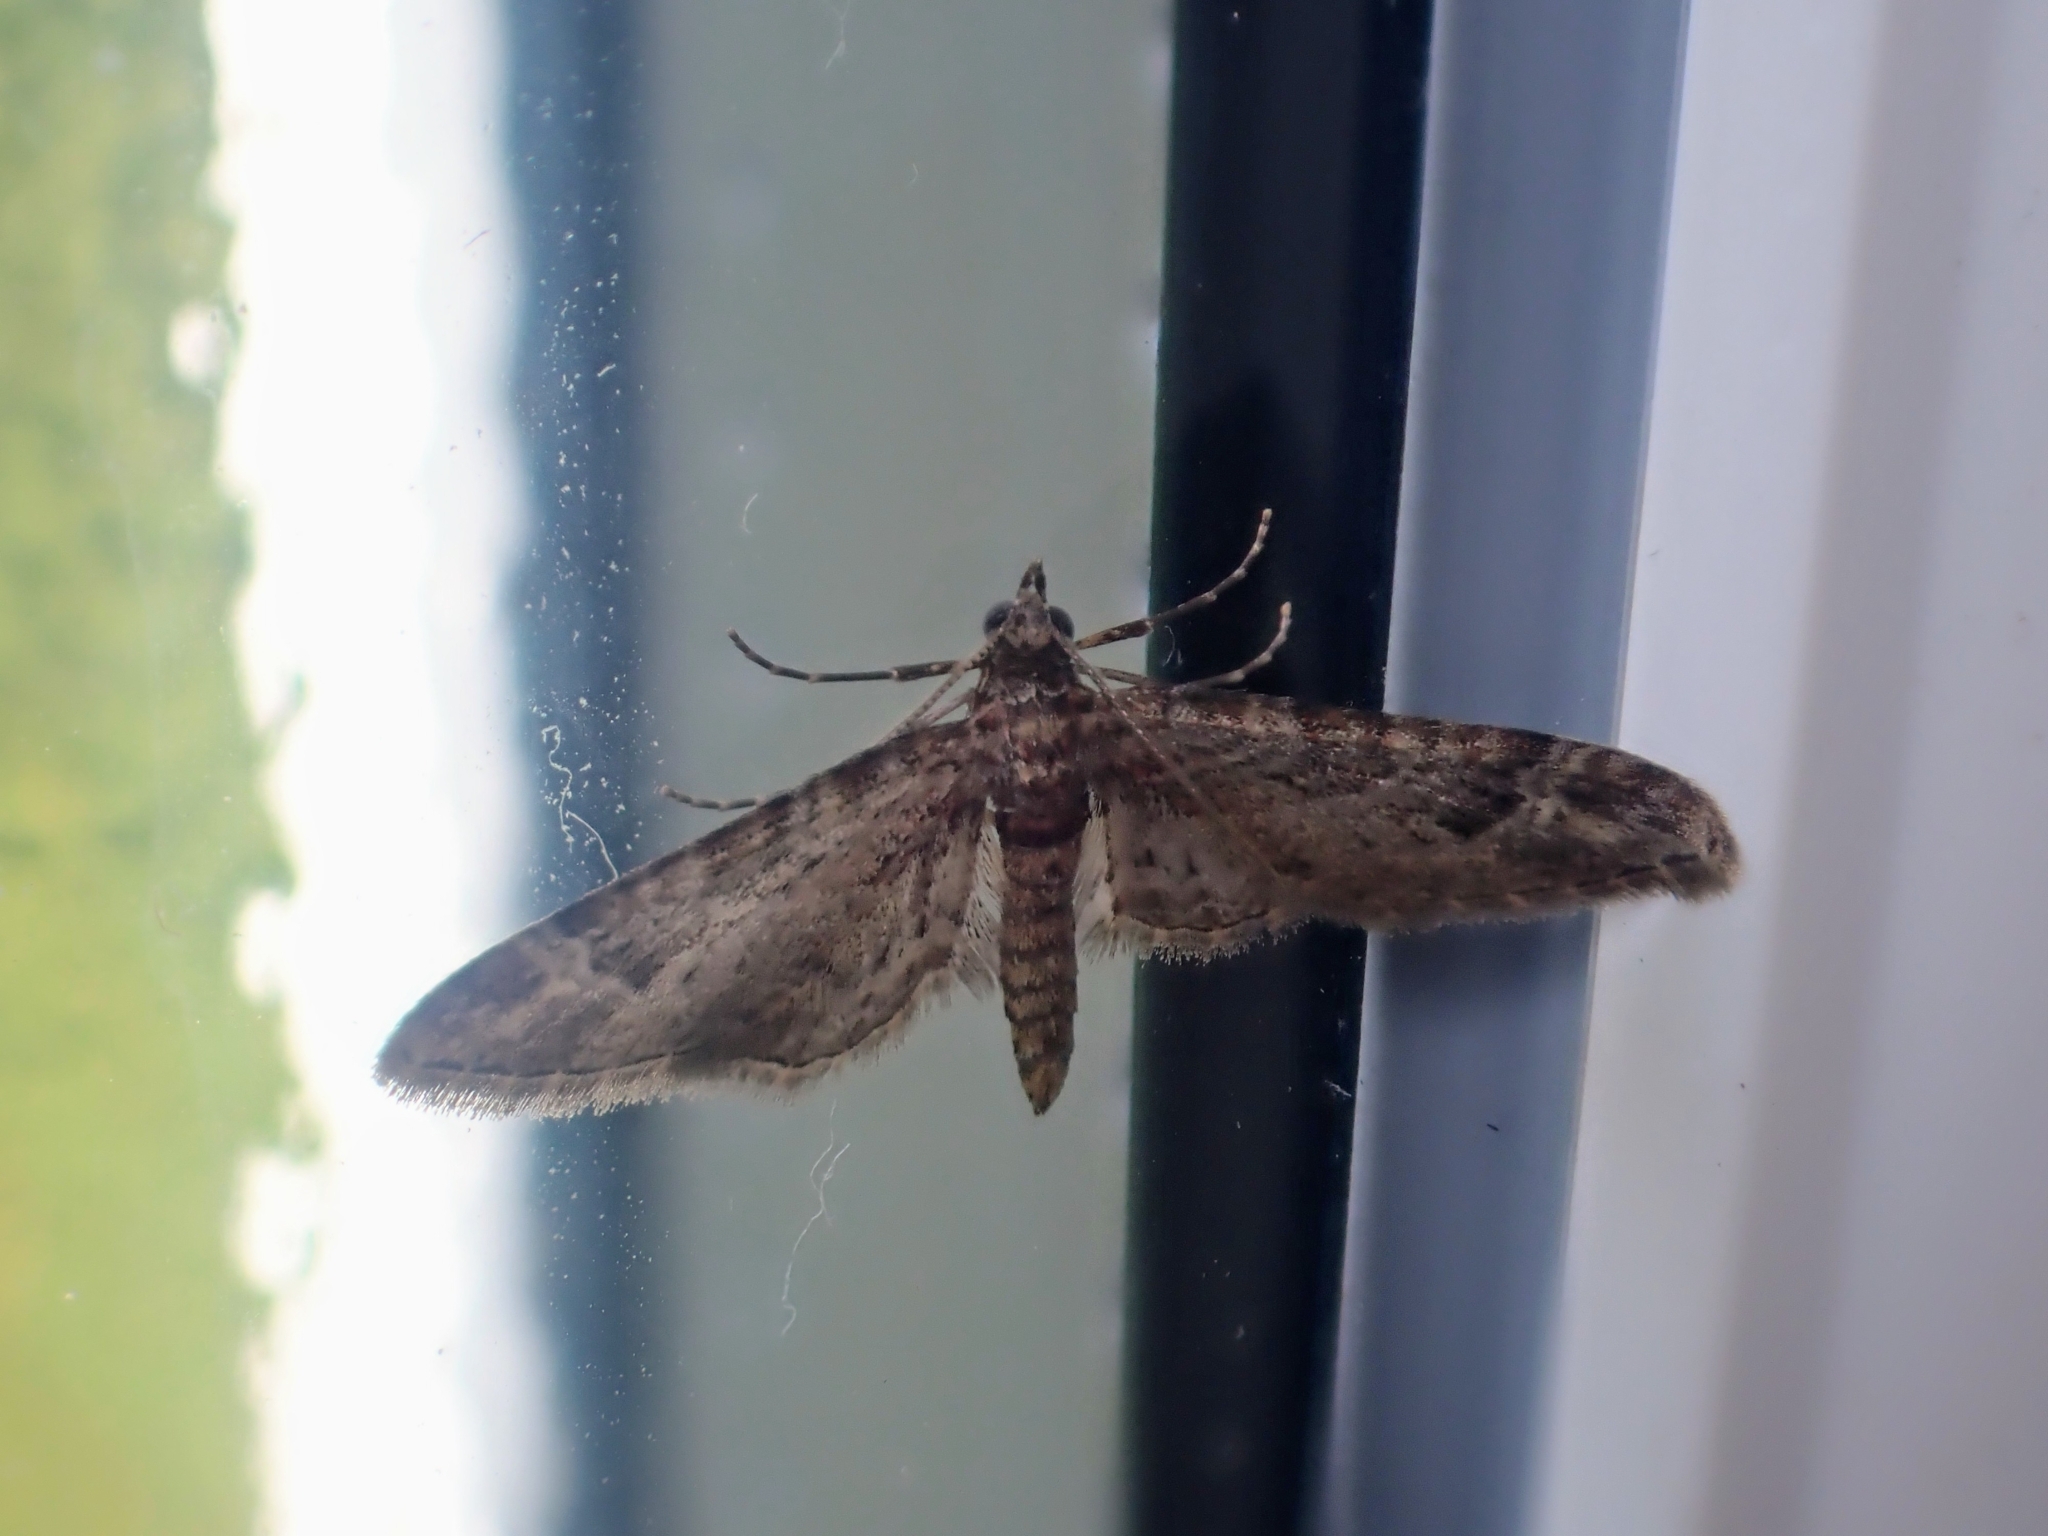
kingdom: Animalia
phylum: Arthropoda
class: Insecta
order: Lepidoptera
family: Geometridae
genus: Gymnoscelis
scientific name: Gymnoscelis rufifasciata
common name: Double-striped pug
